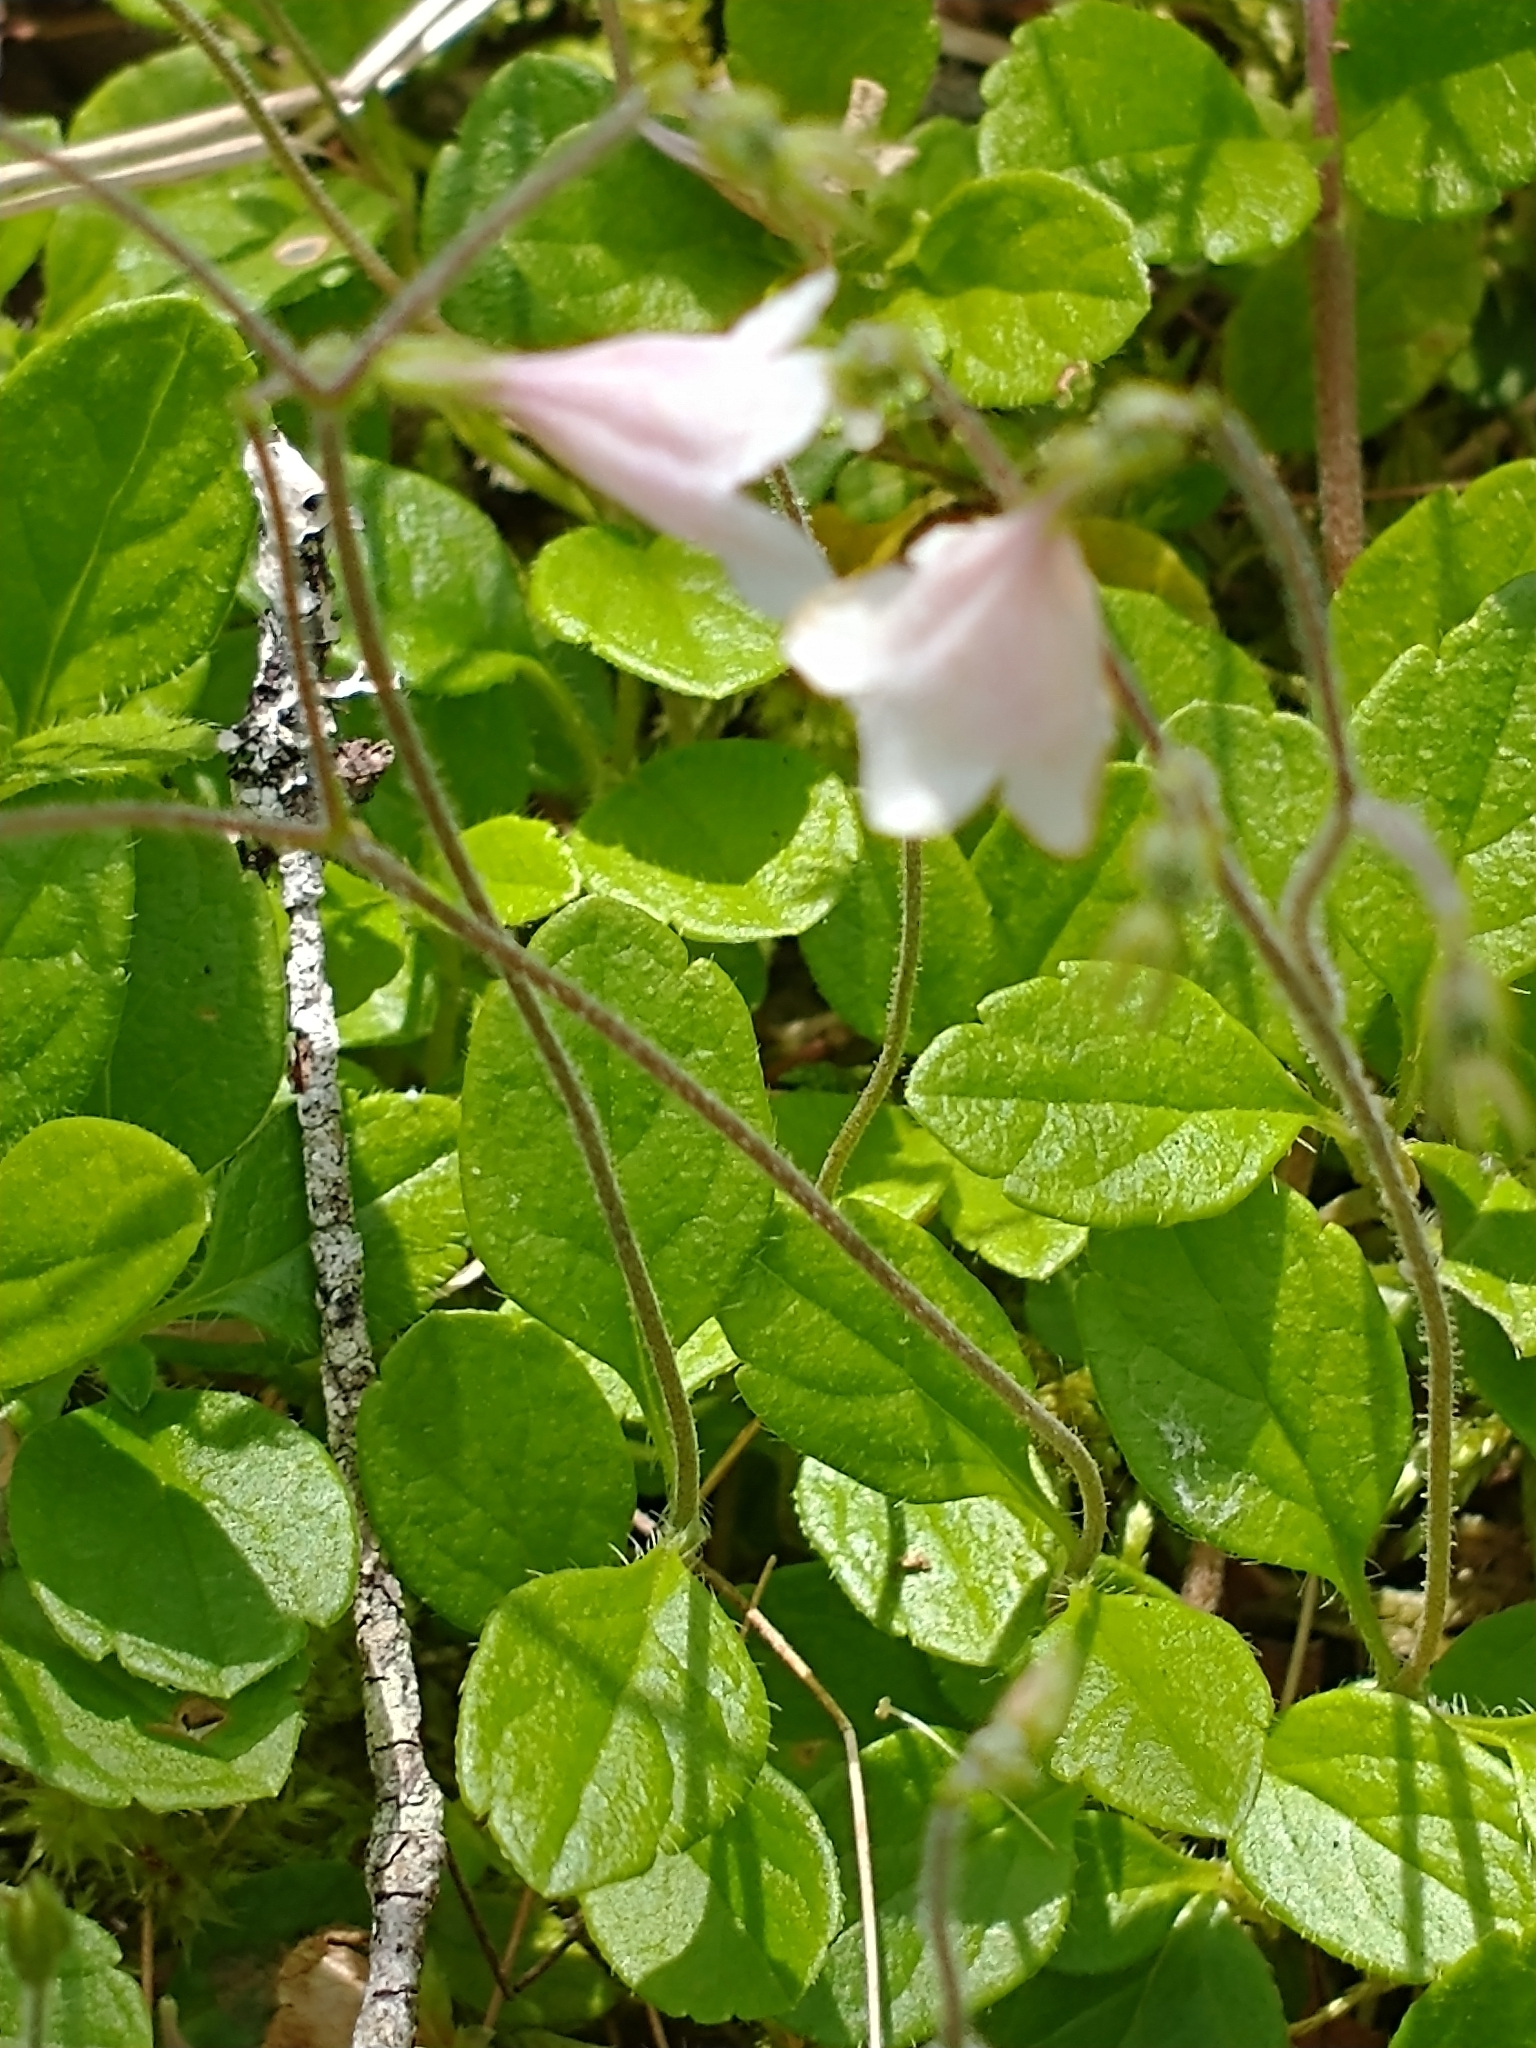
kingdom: Plantae
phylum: Tracheophyta
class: Magnoliopsida
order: Dipsacales
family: Caprifoliaceae
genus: Linnaea
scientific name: Linnaea borealis
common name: Twinflower
